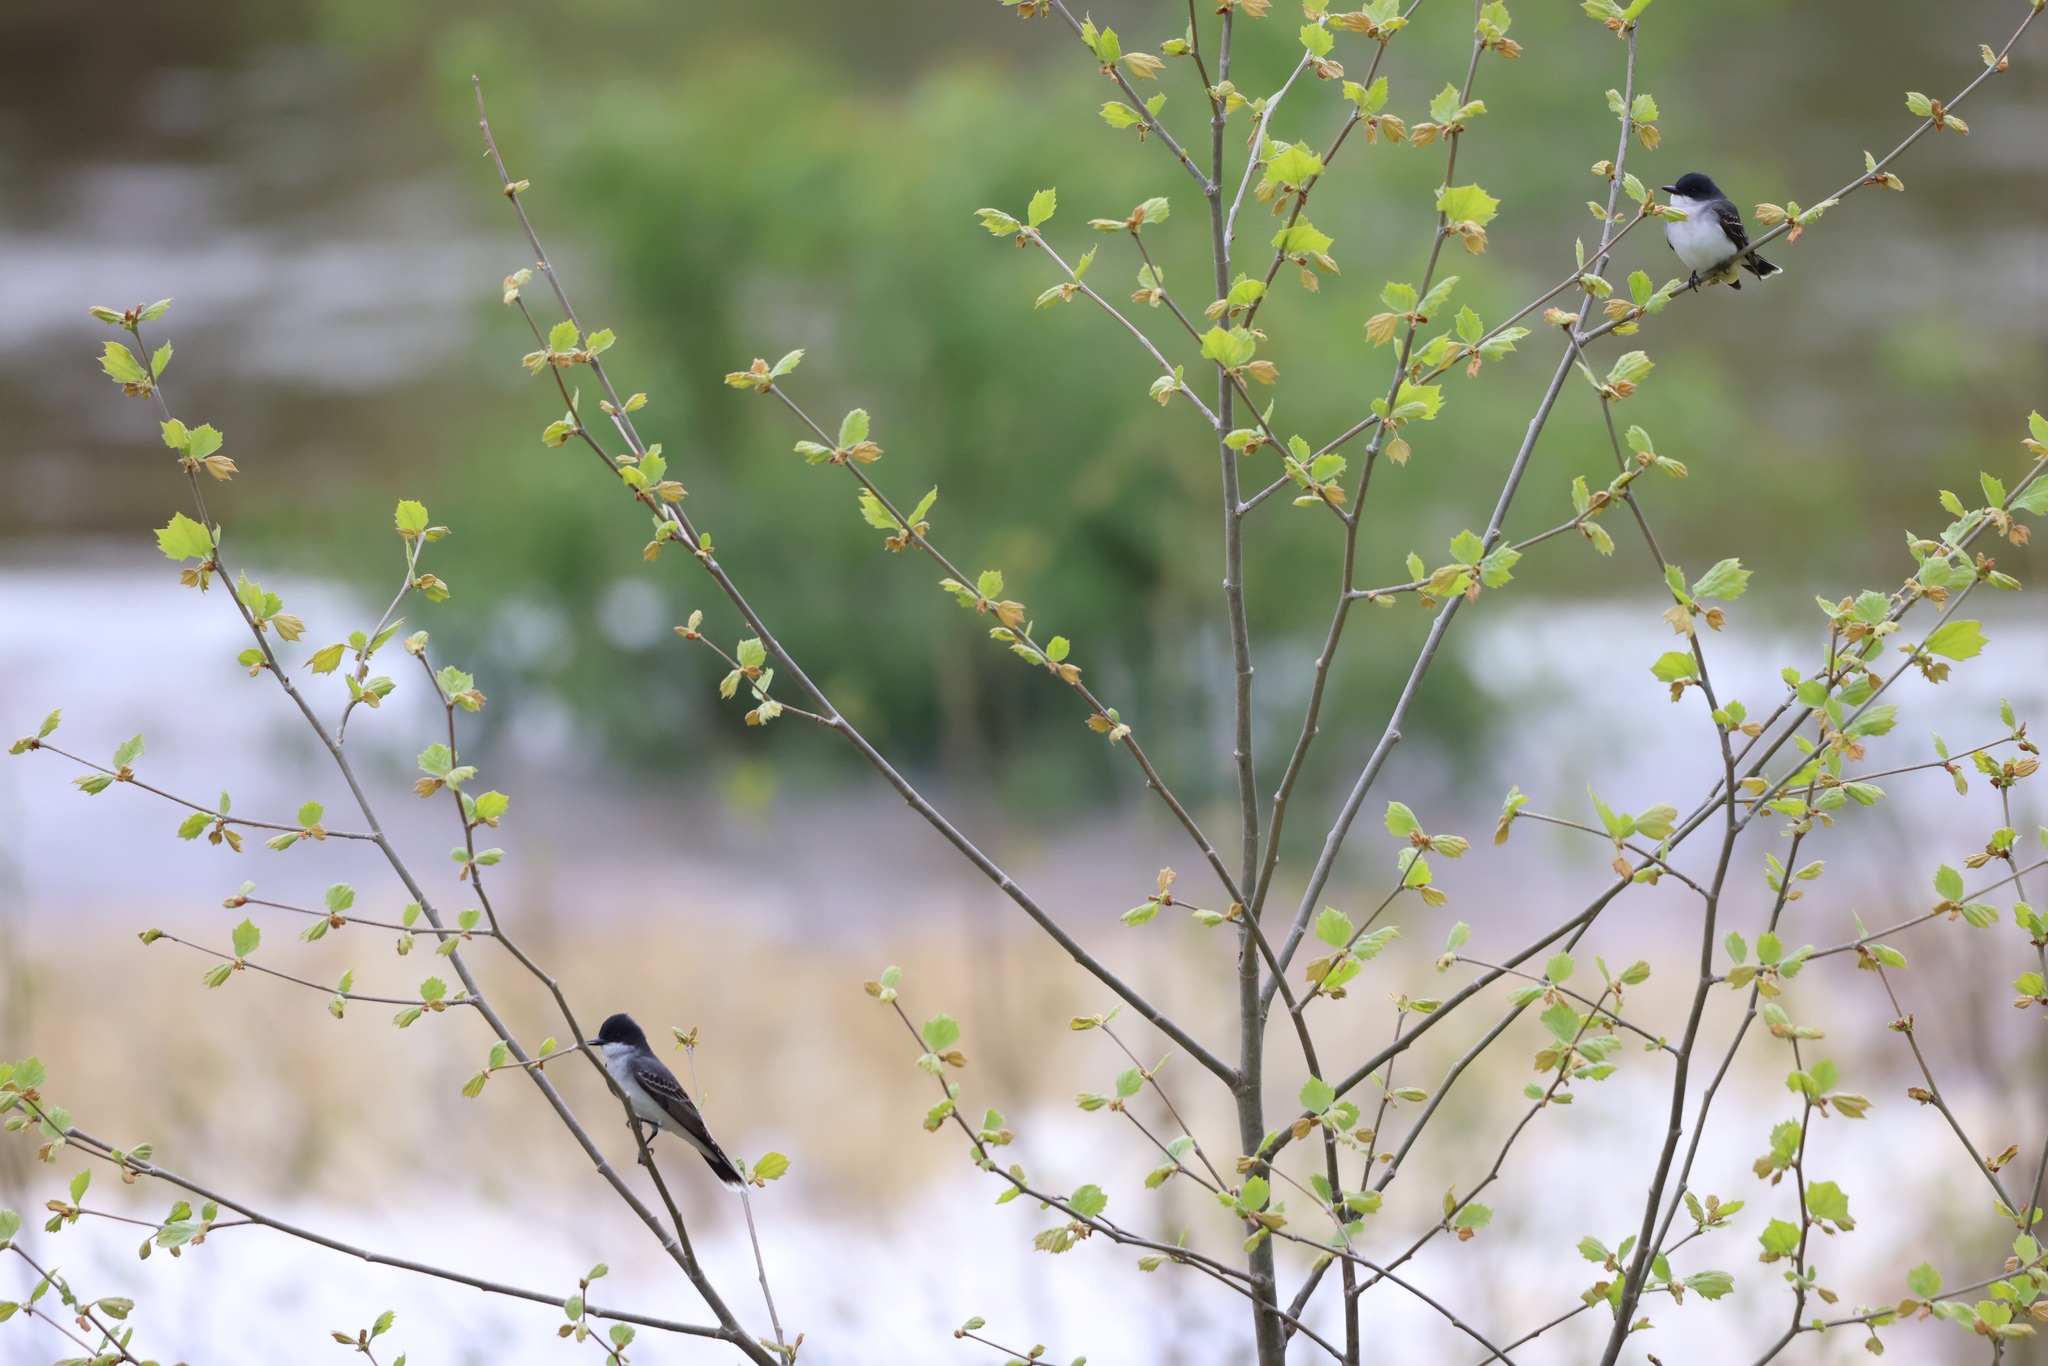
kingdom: Animalia
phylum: Chordata
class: Aves
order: Passeriformes
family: Tyrannidae
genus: Tyrannus
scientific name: Tyrannus tyrannus
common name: Eastern kingbird
